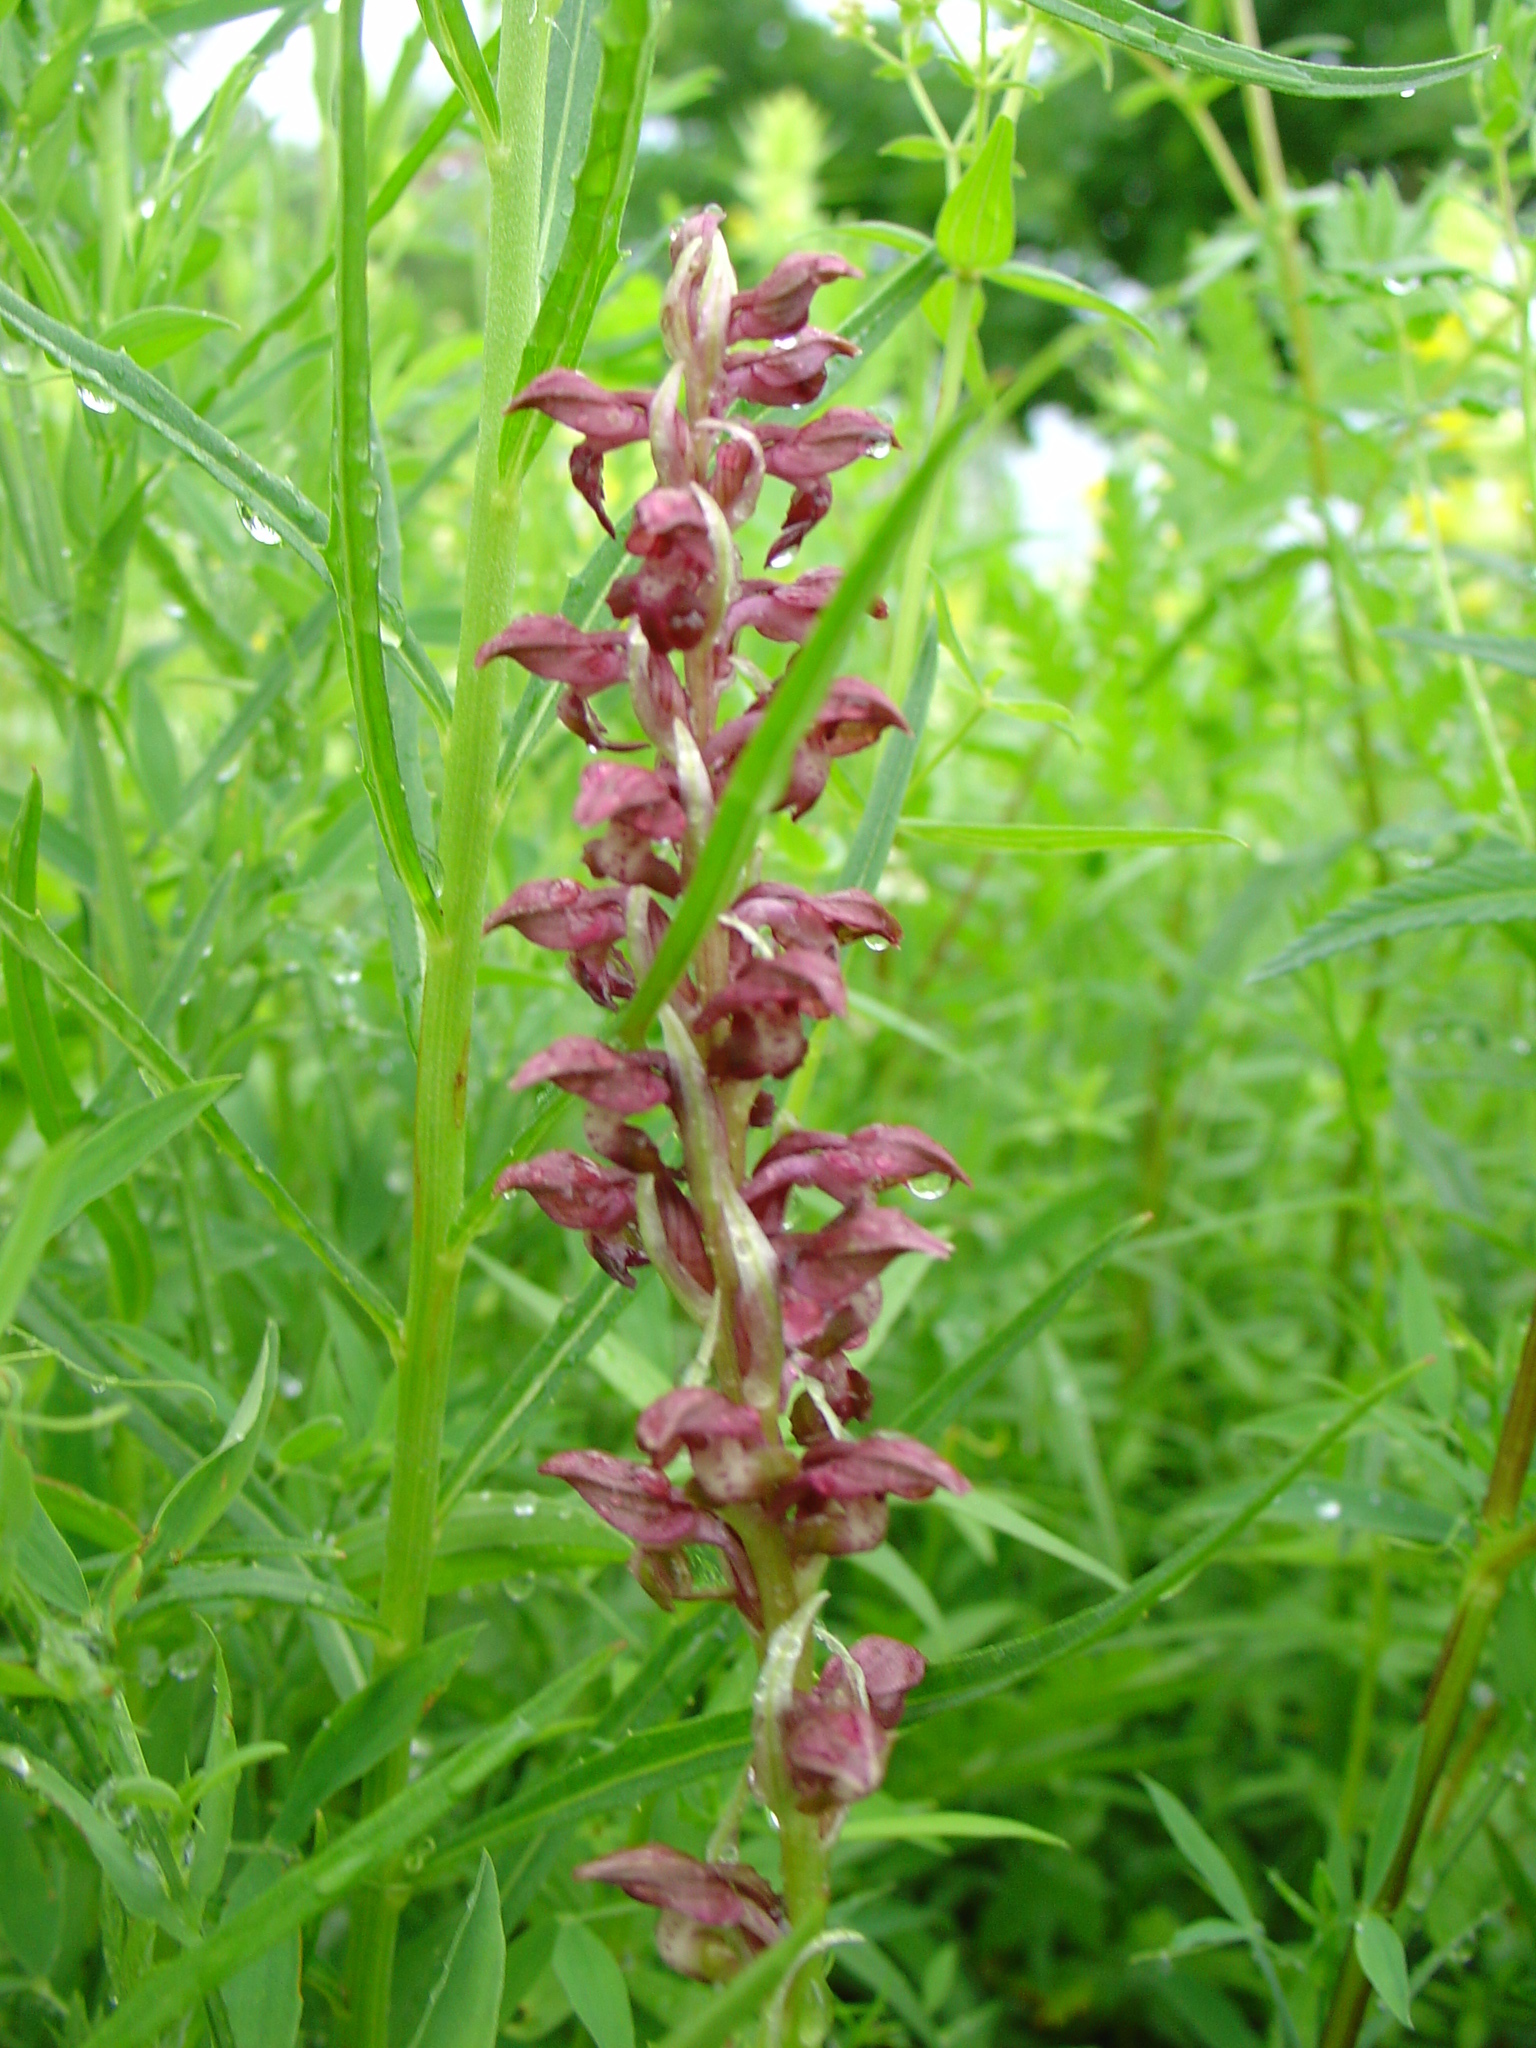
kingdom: Plantae
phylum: Tracheophyta
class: Liliopsida
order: Asparagales
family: Orchidaceae
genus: Anacamptis
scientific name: Anacamptis coriophora
